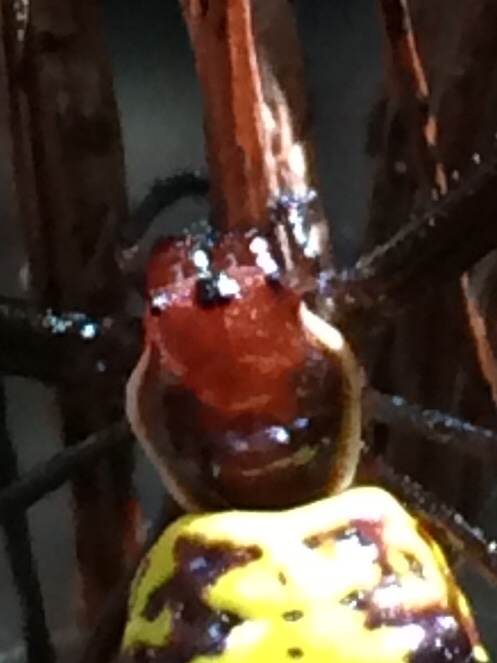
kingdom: Animalia
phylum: Arthropoda
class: Arachnida
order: Araneae
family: Araneidae
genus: Micrathena
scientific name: Micrathena fissispina
